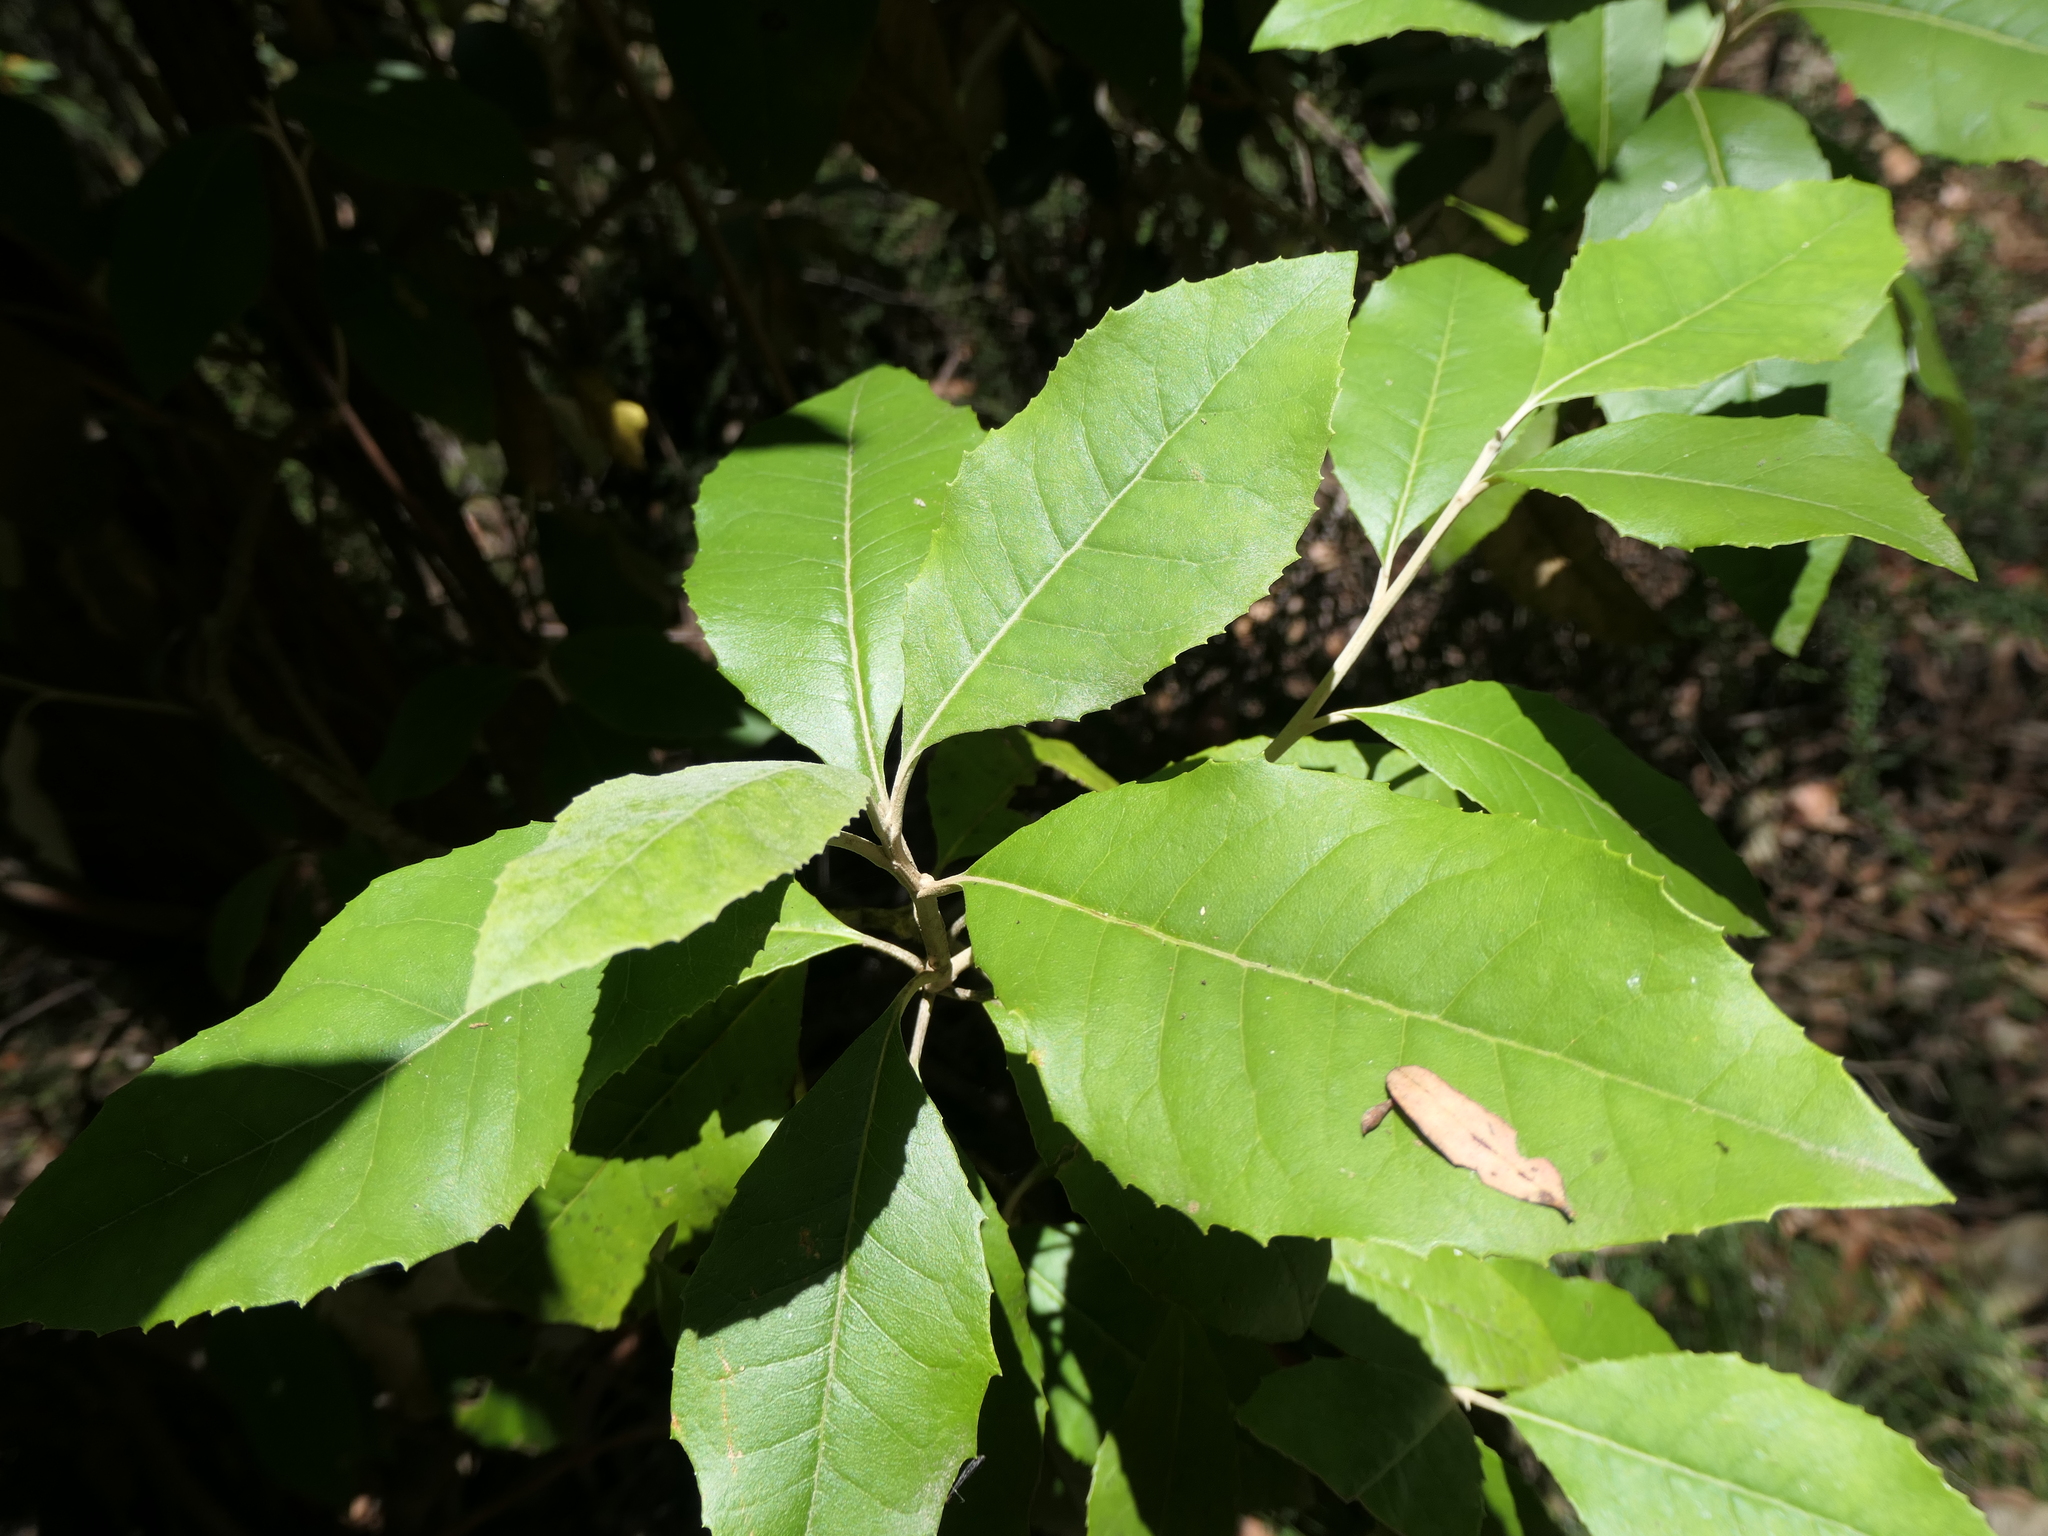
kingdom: Plantae
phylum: Tracheophyta
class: Magnoliopsida
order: Asterales
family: Asteraceae
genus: Olearia
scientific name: Olearia argophylla
